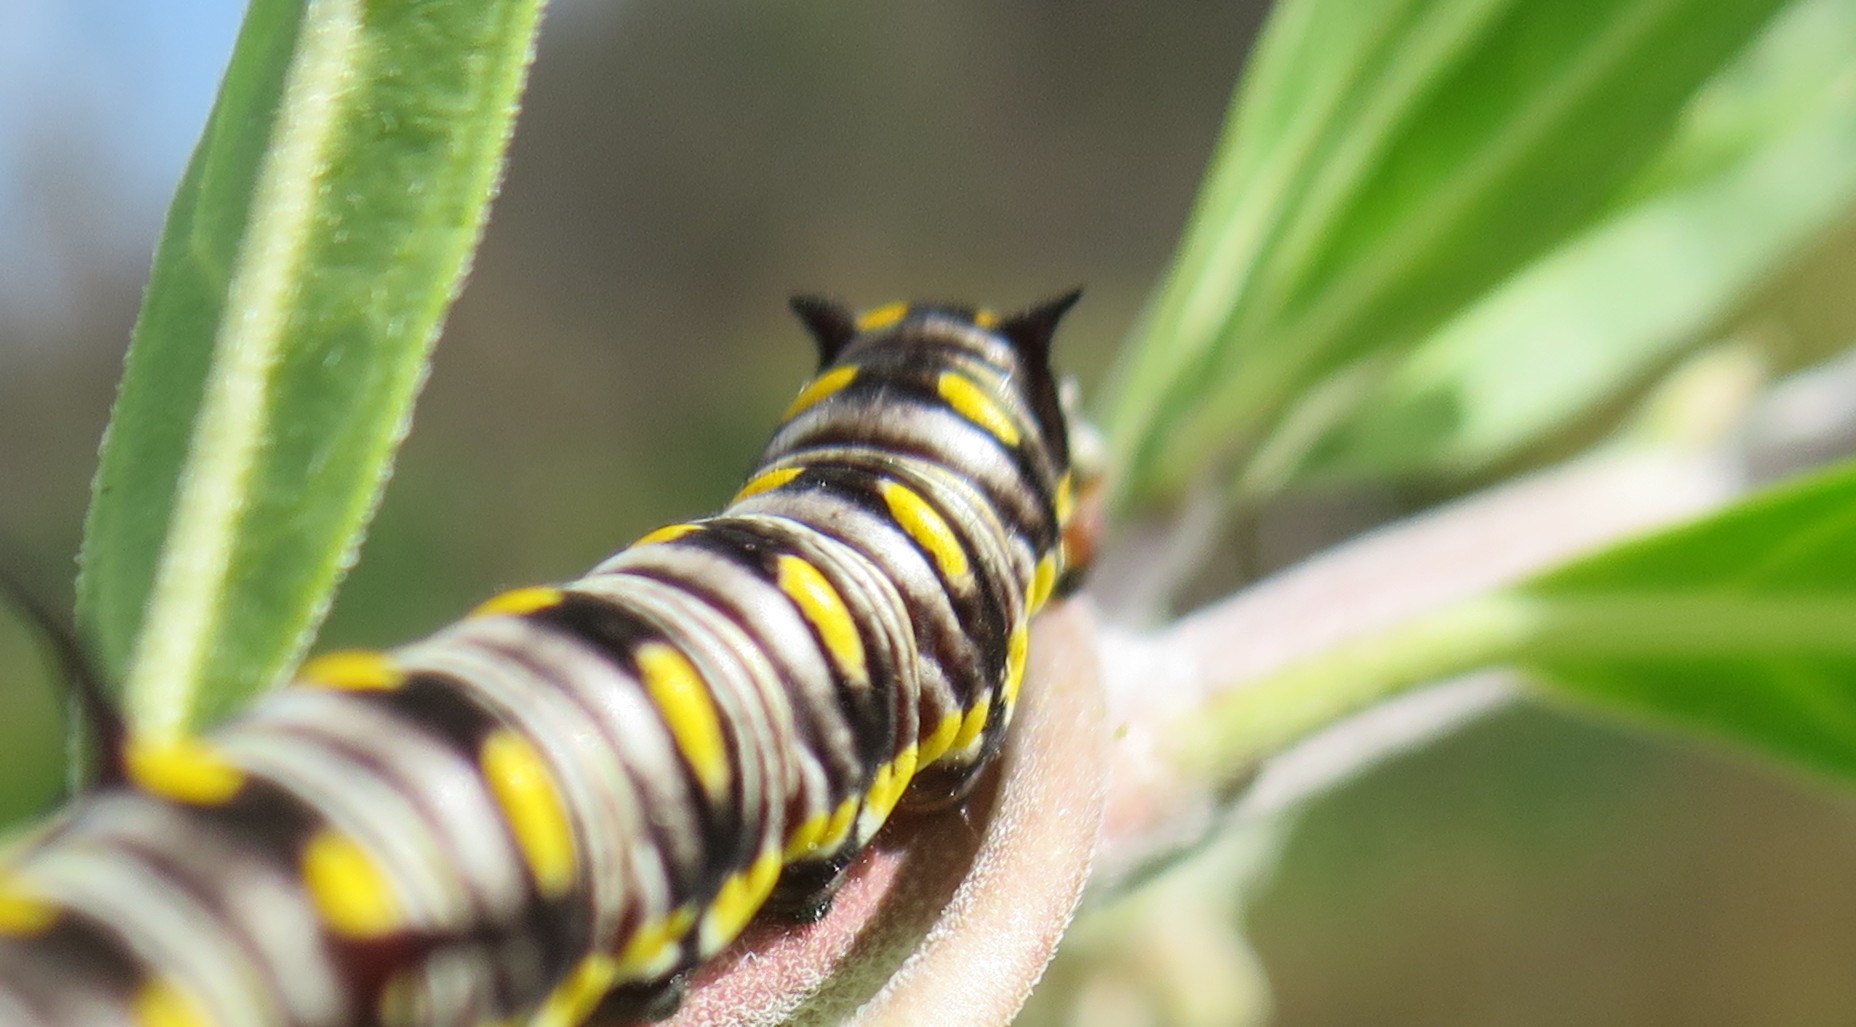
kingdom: Animalia
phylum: Arthropoda
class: Insecta
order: Lepidoptera
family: Nymphalidae
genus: Danaus
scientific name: Danaus chrysippus
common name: Plain tiger
